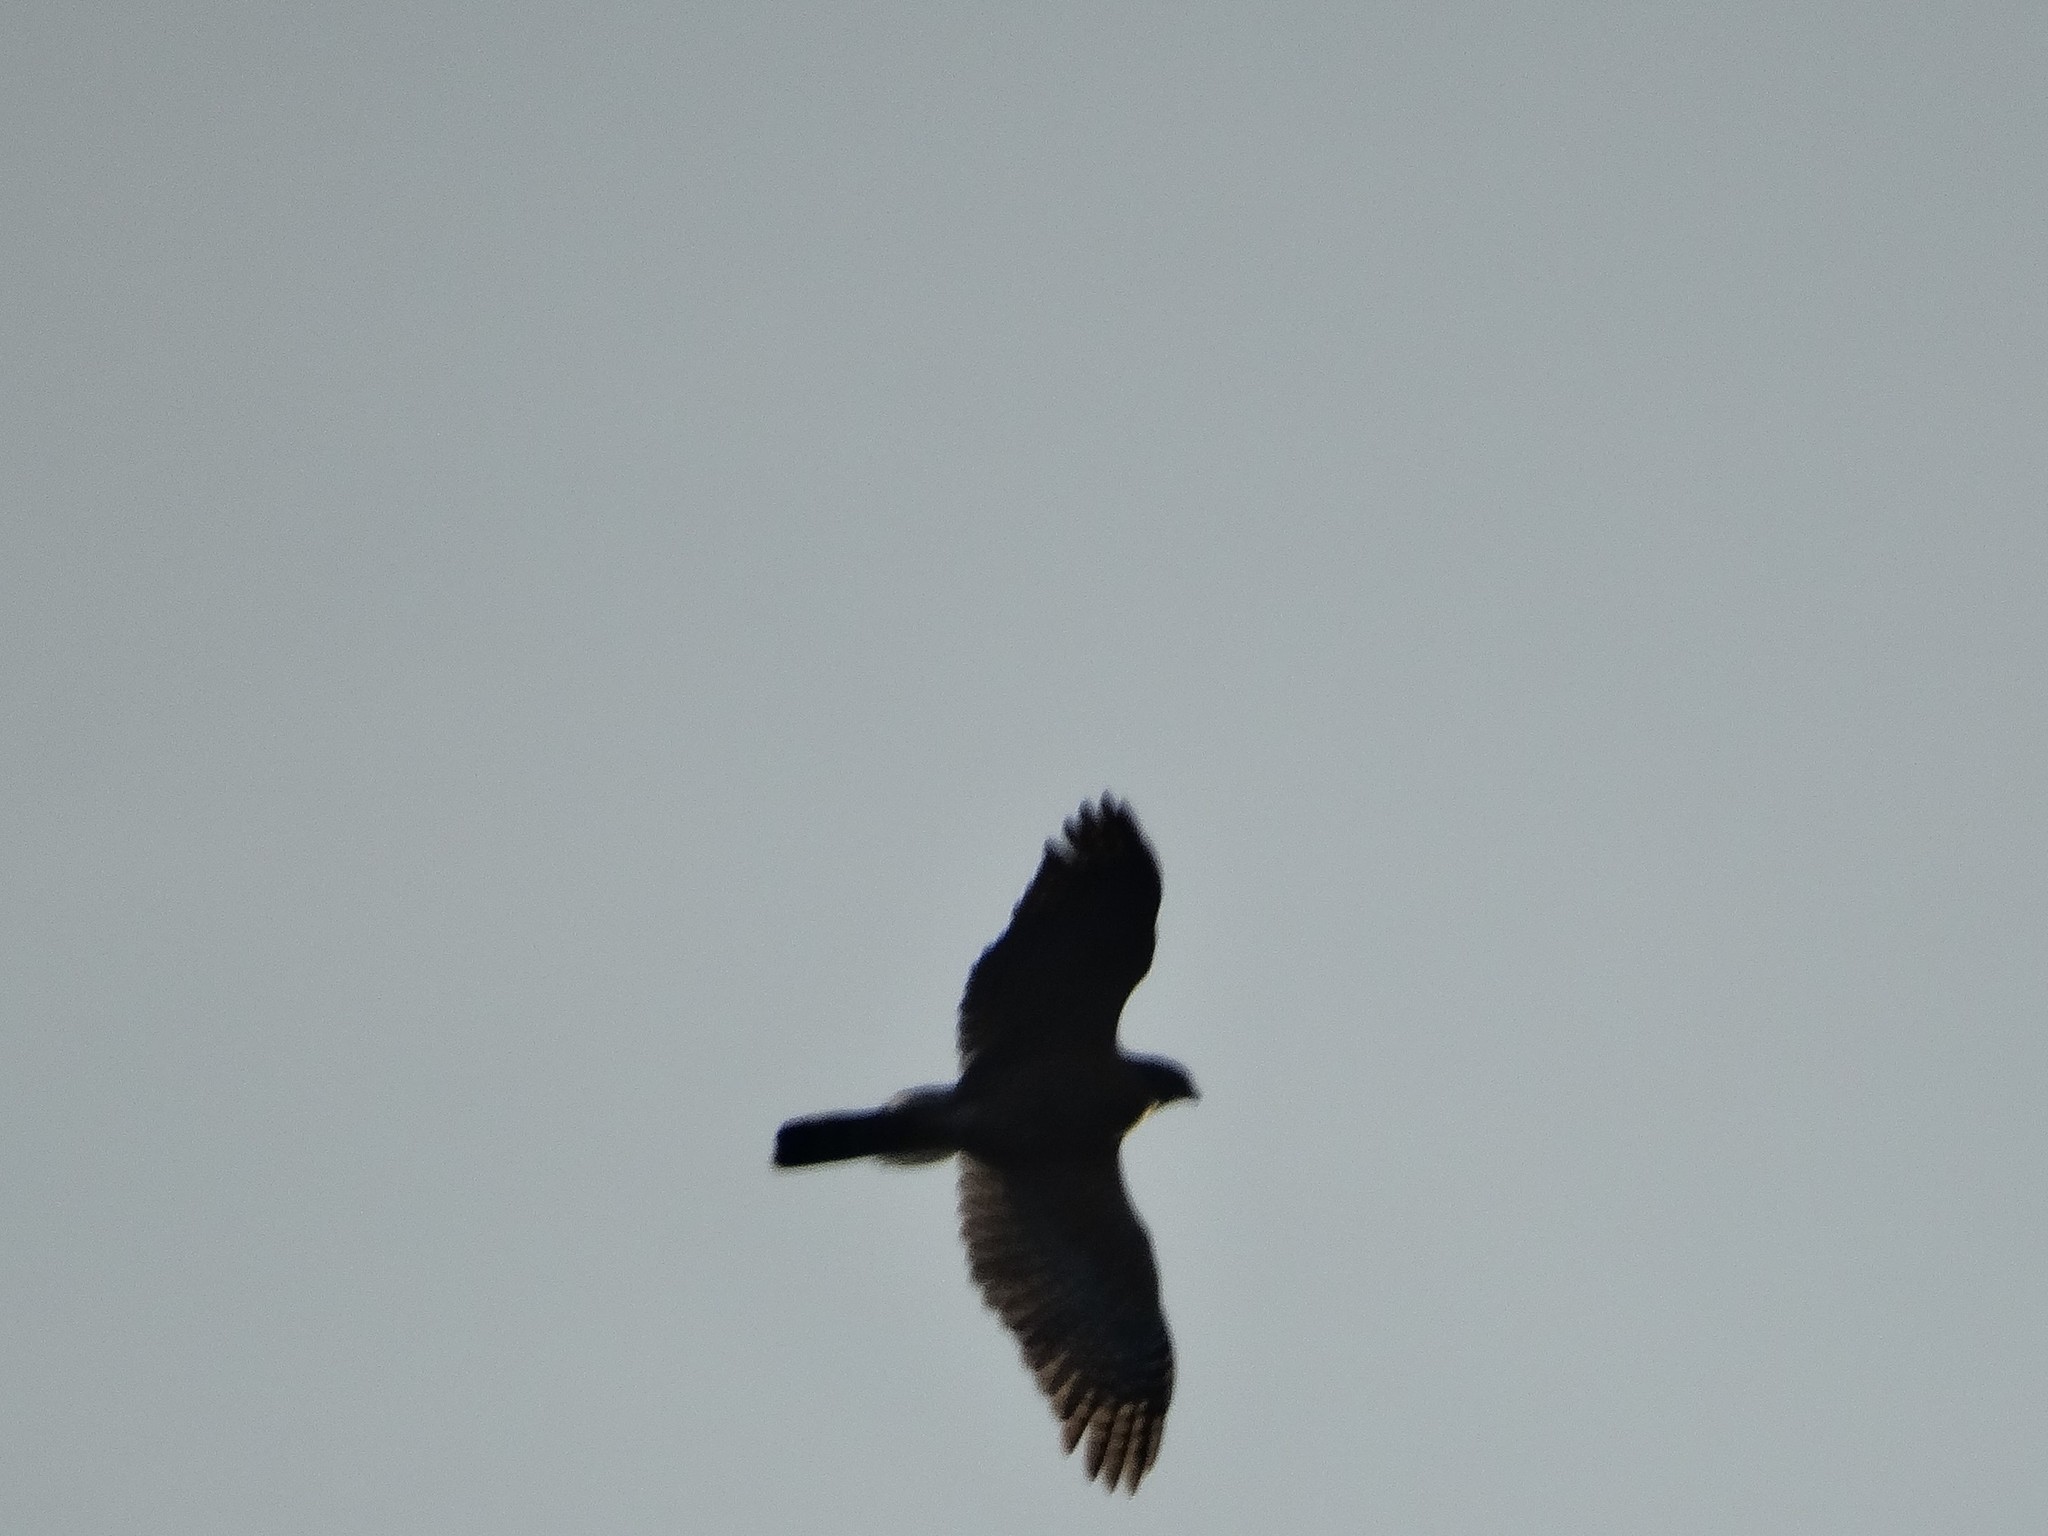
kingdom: Animalia
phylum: Chordata
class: Aves
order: Accipitriformes
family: Accipitridae
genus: Accipiter
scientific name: Accipiter cooperii
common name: Cooper's hawk
